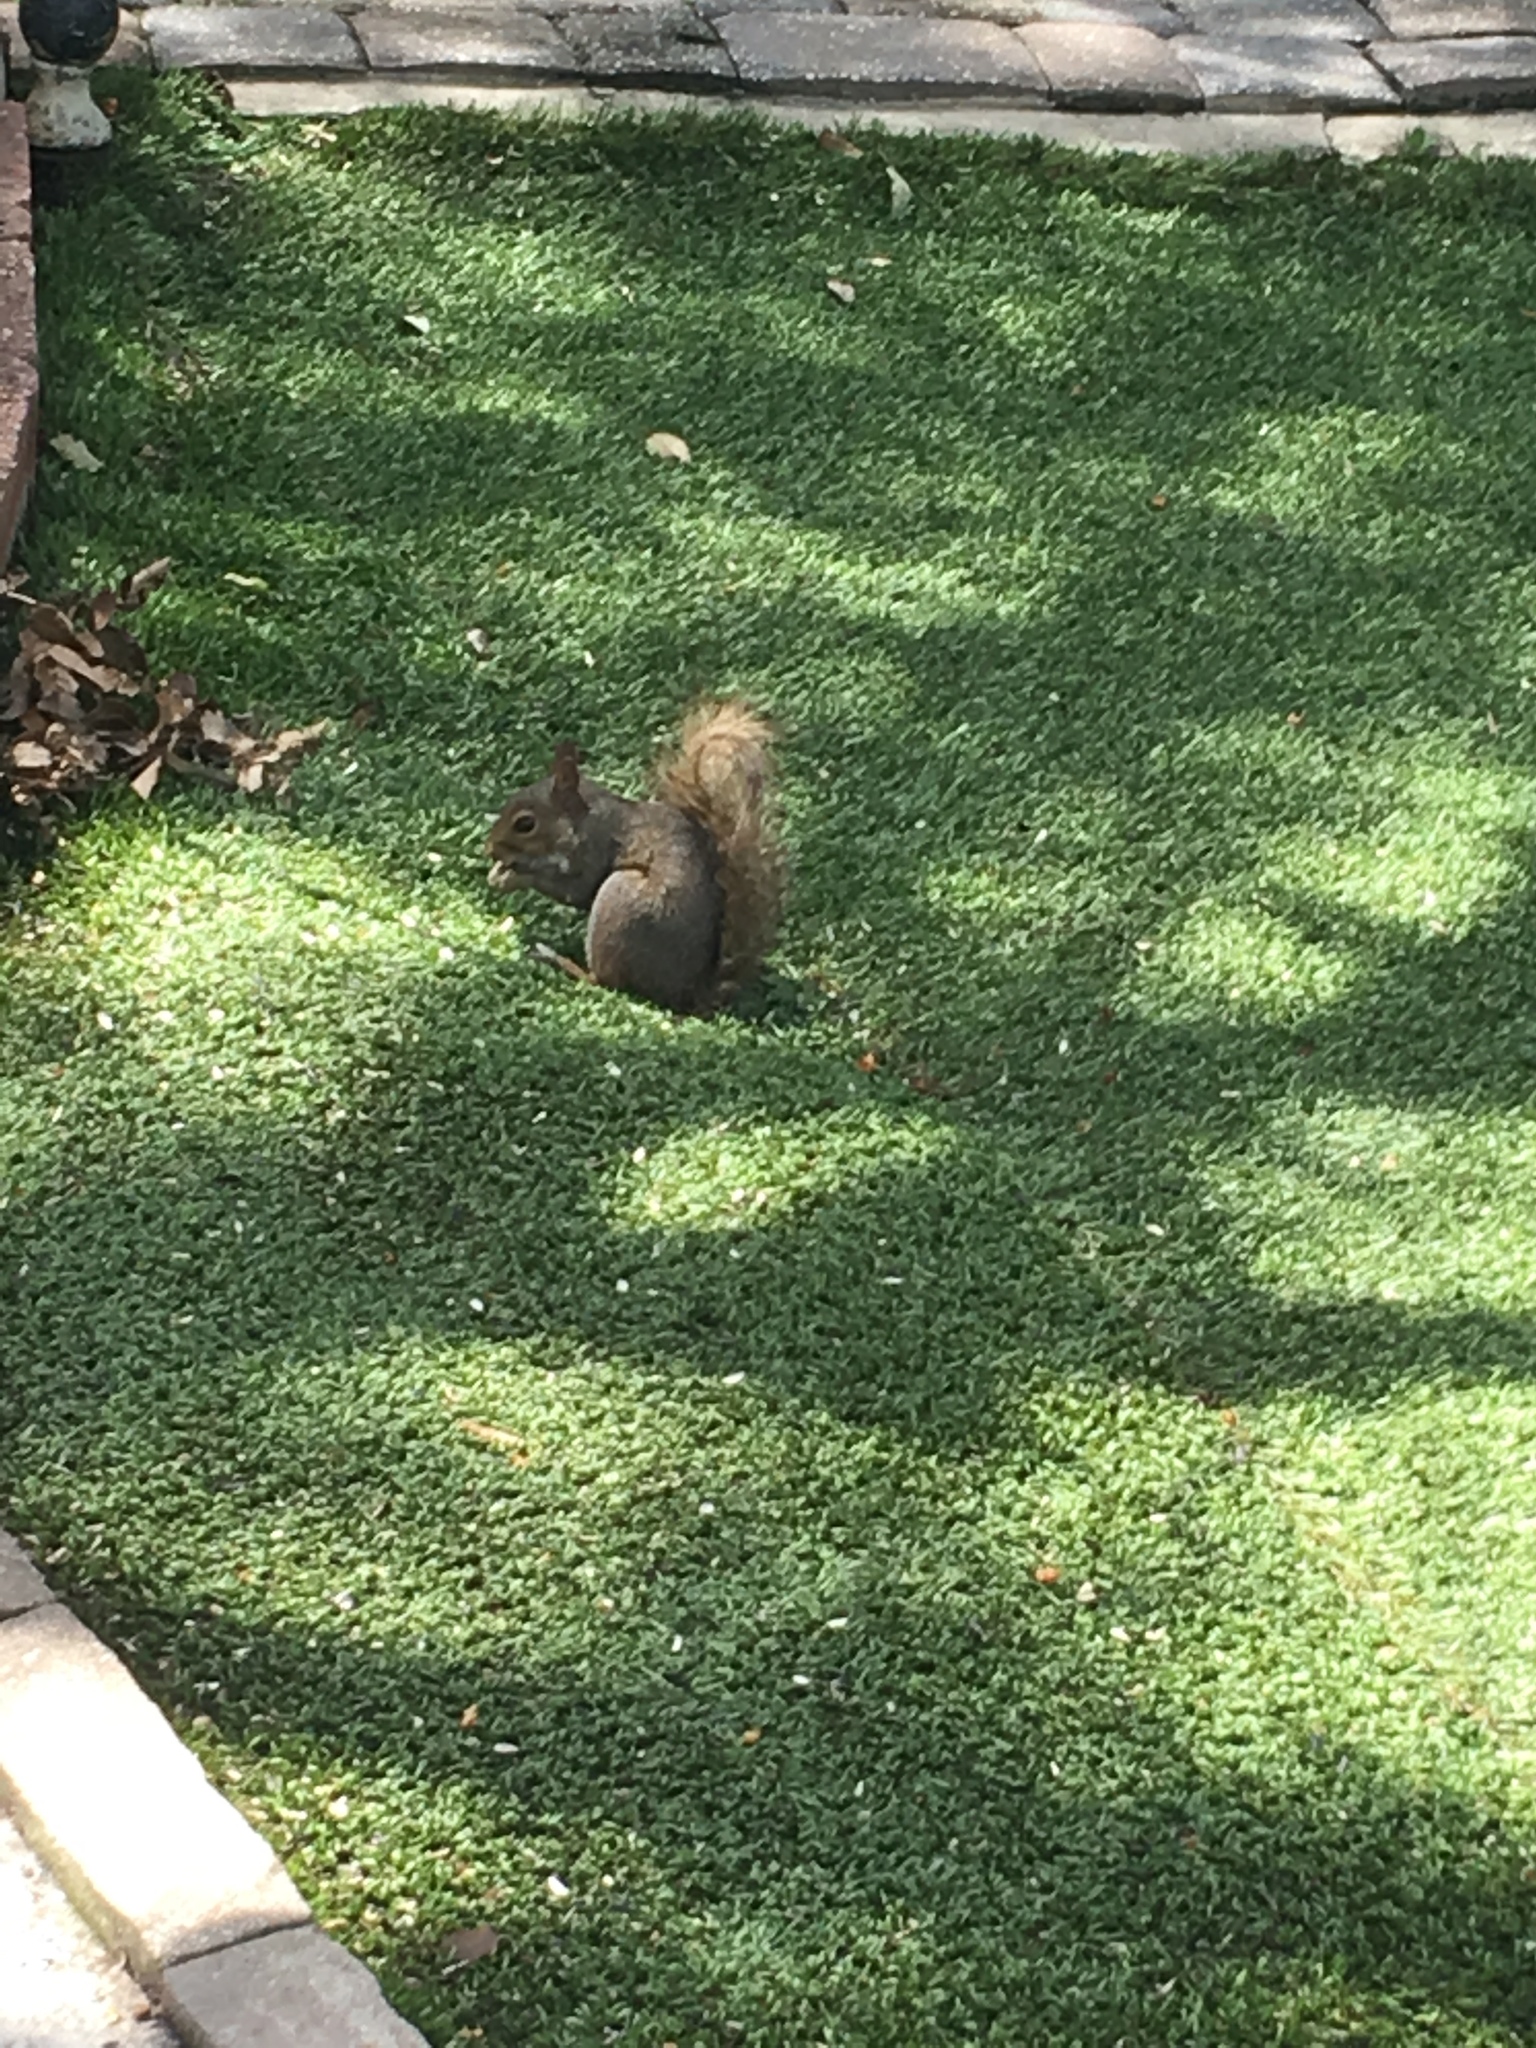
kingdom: Animalia
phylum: Chordata
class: Mammalia
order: Rodentia
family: Sciuridae
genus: Sciurus
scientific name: Sciurus carolinensis
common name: Eastern gray squirrel
